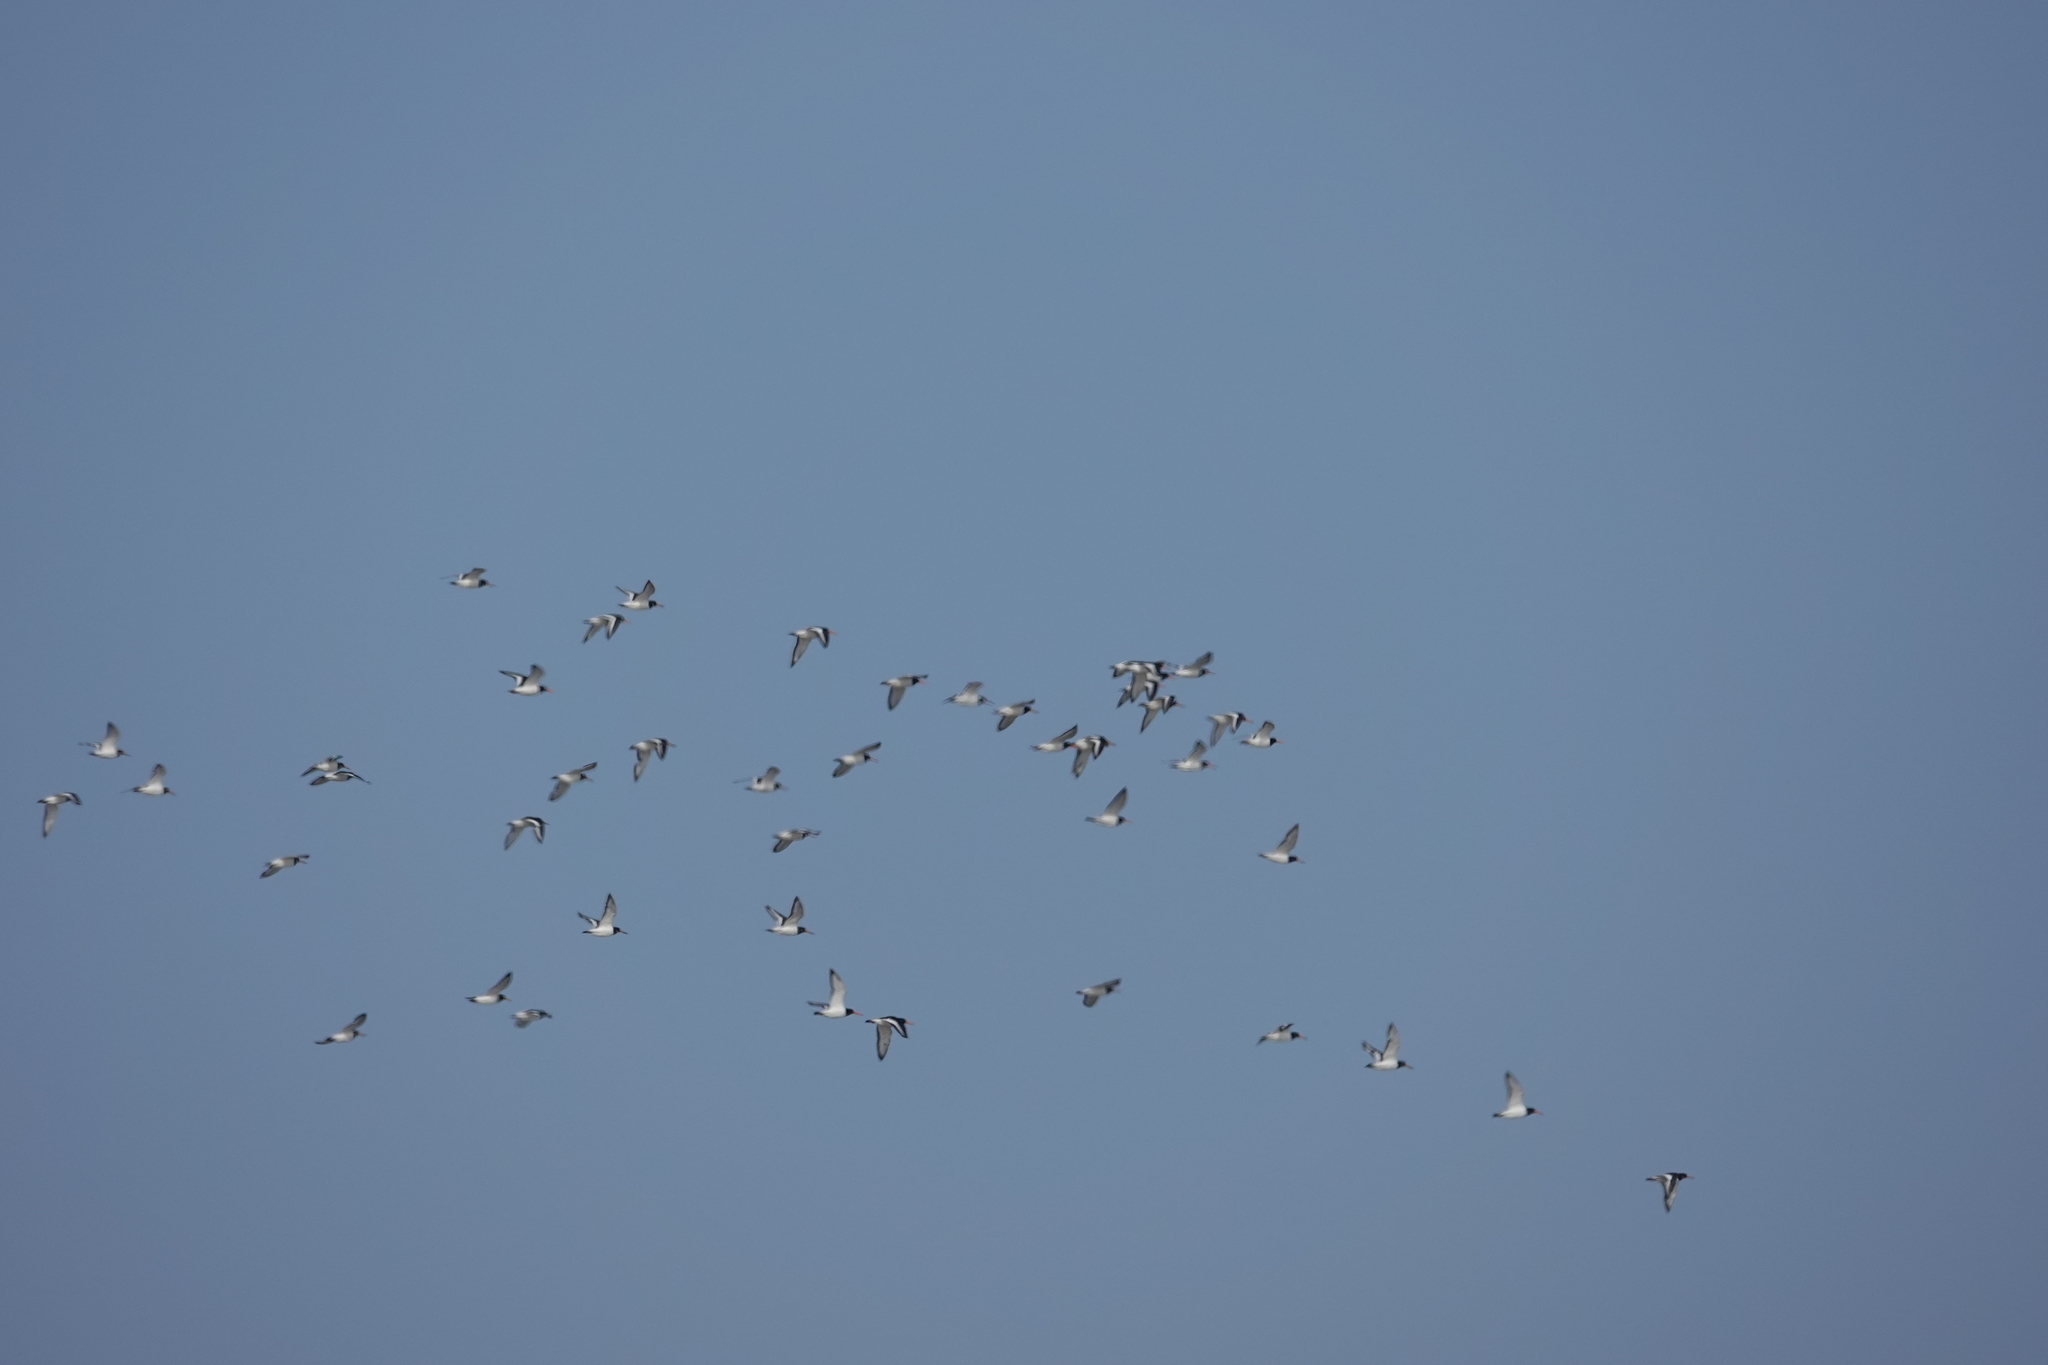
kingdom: Animalia
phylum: Chordata
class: Aves
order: Charadriiformes
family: Haematopodidae
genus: Haematopus
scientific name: Haematopus ostralegus
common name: Eurasian oystercatcher
